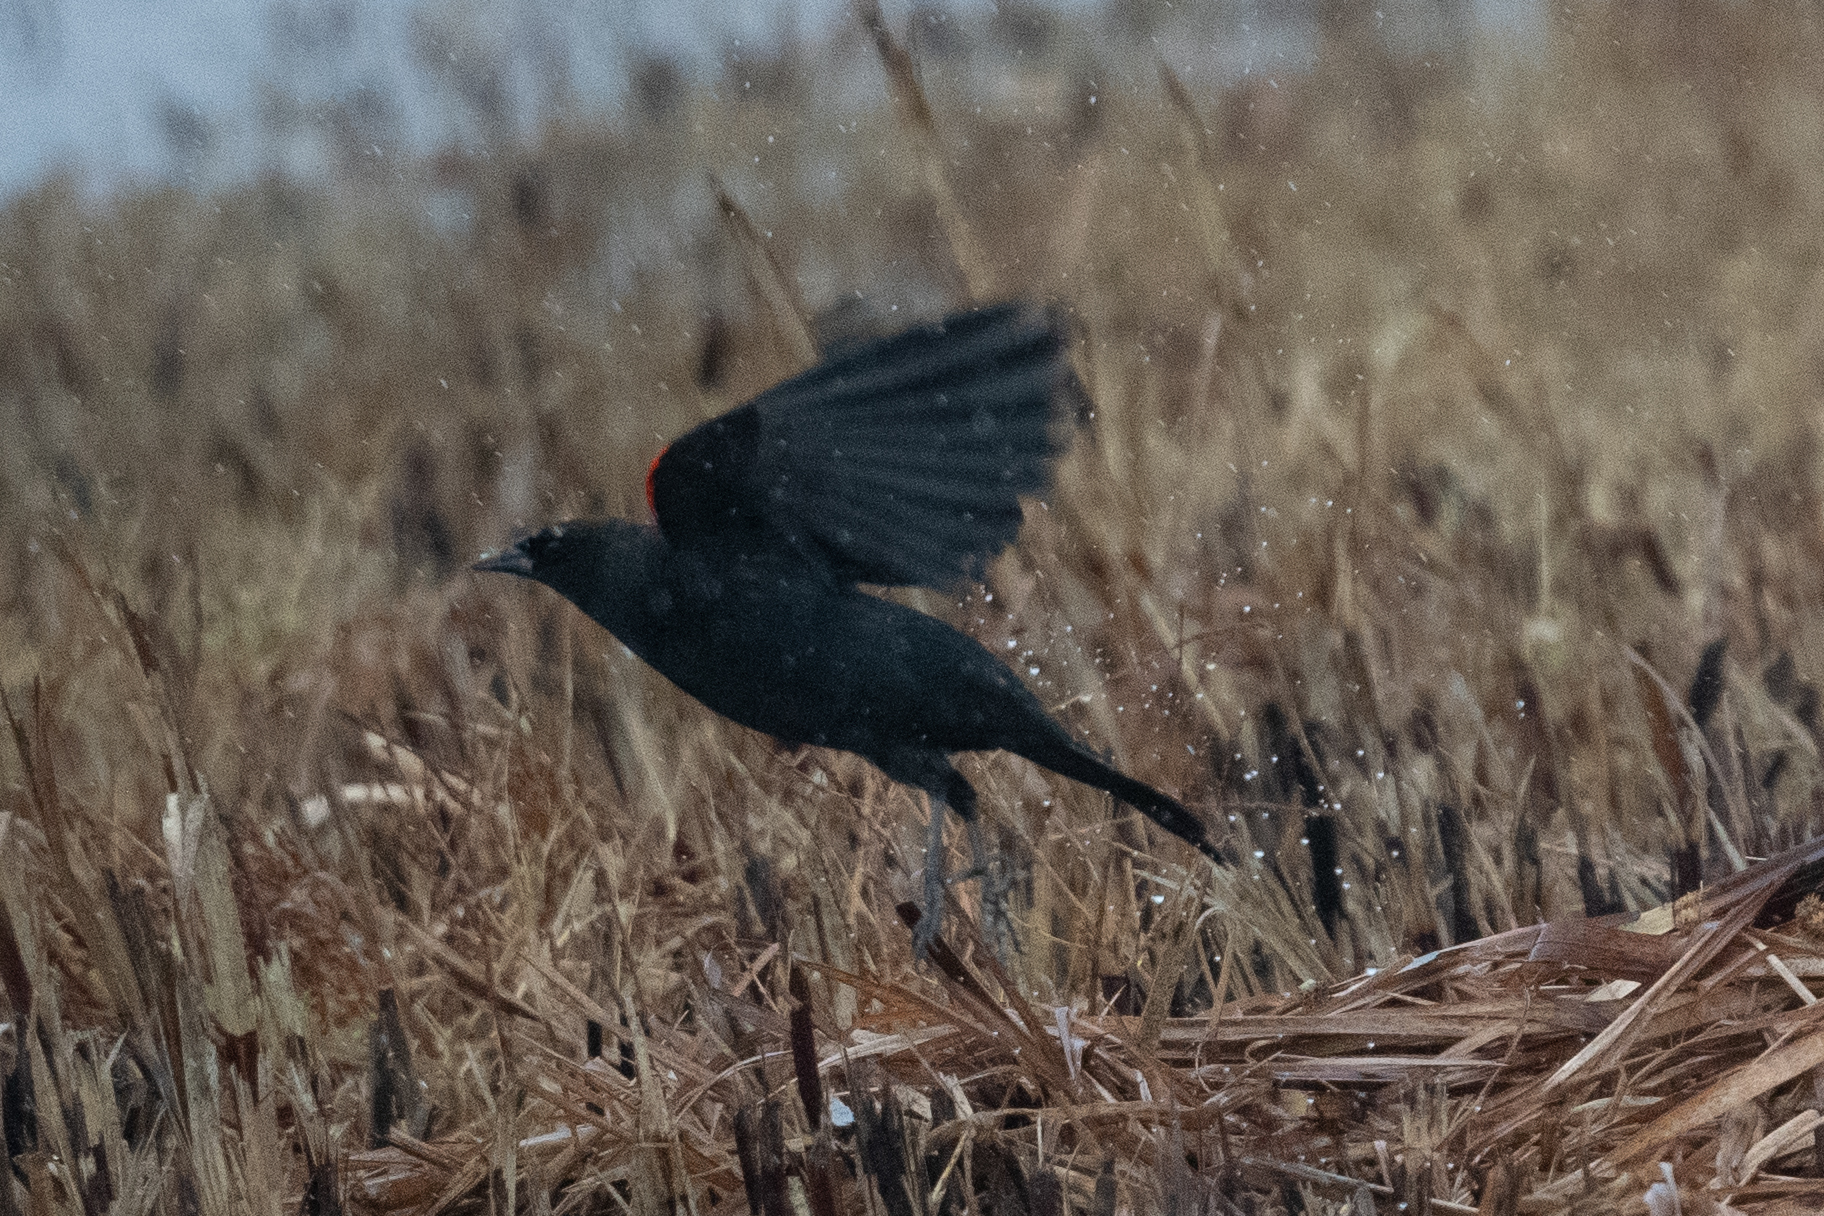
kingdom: Animalia
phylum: Chordata
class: Aves
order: Passeriformes
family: Icteridae
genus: Agelaius
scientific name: Agelaius phoeniceus
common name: Red-winged blackbird
